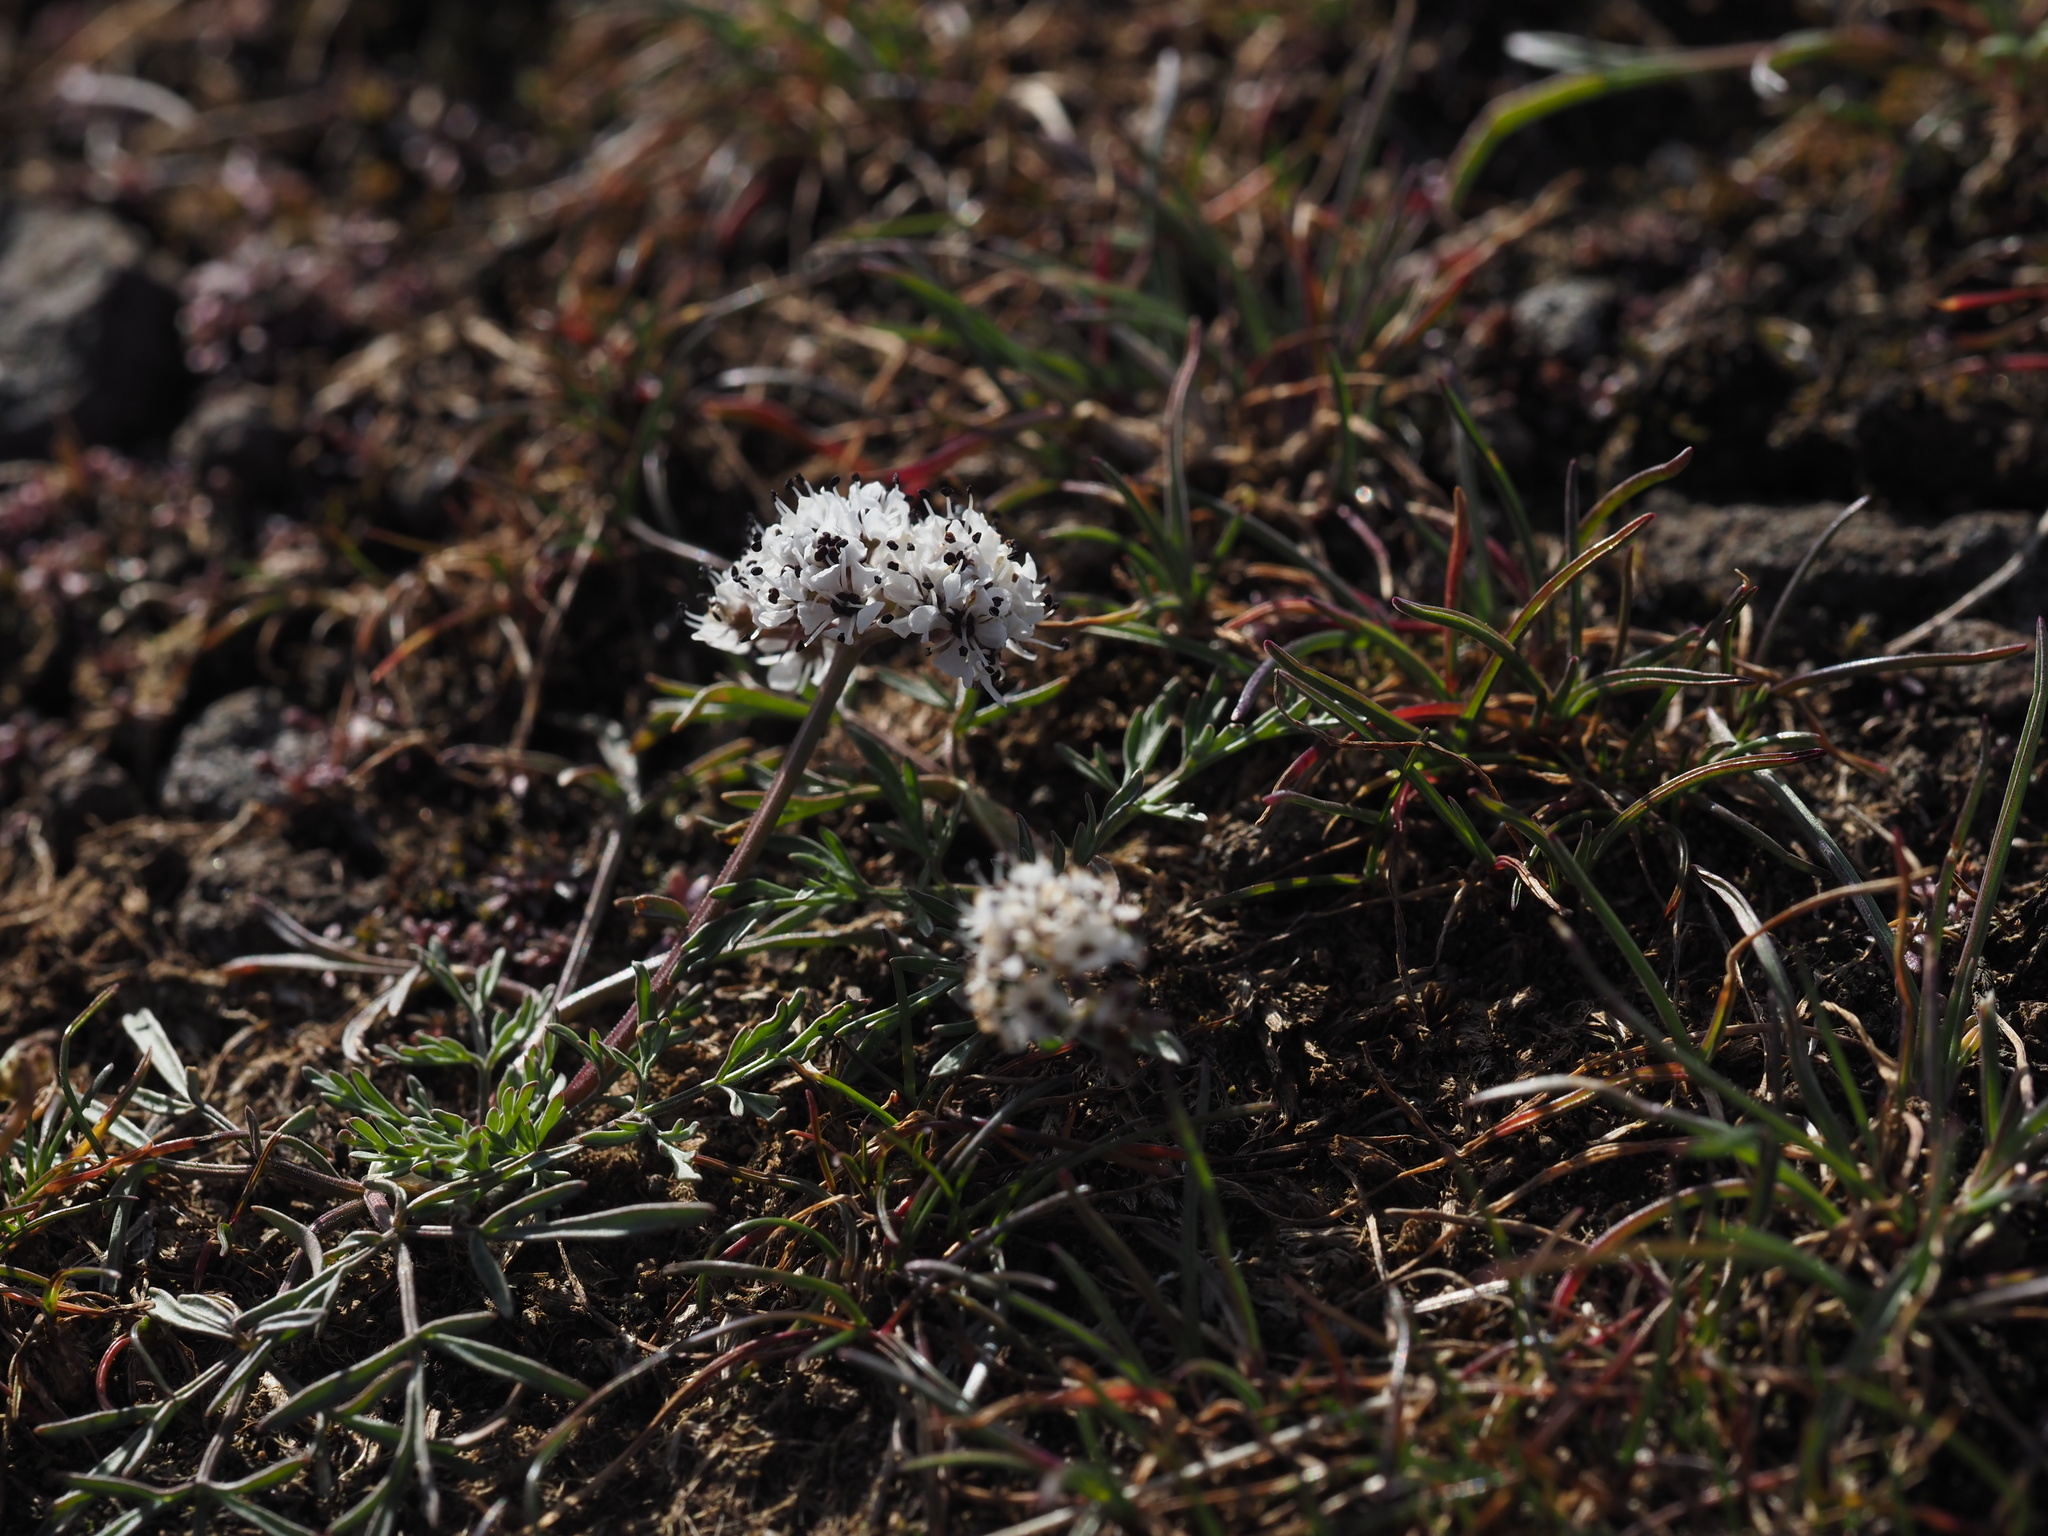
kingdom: Plantae
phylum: Tracheophyta
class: Magnoliopsida
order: Apiales
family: Apiaceae
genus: Lomatium
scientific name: Lomatium gormanii
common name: Gorman's biscuitroot
